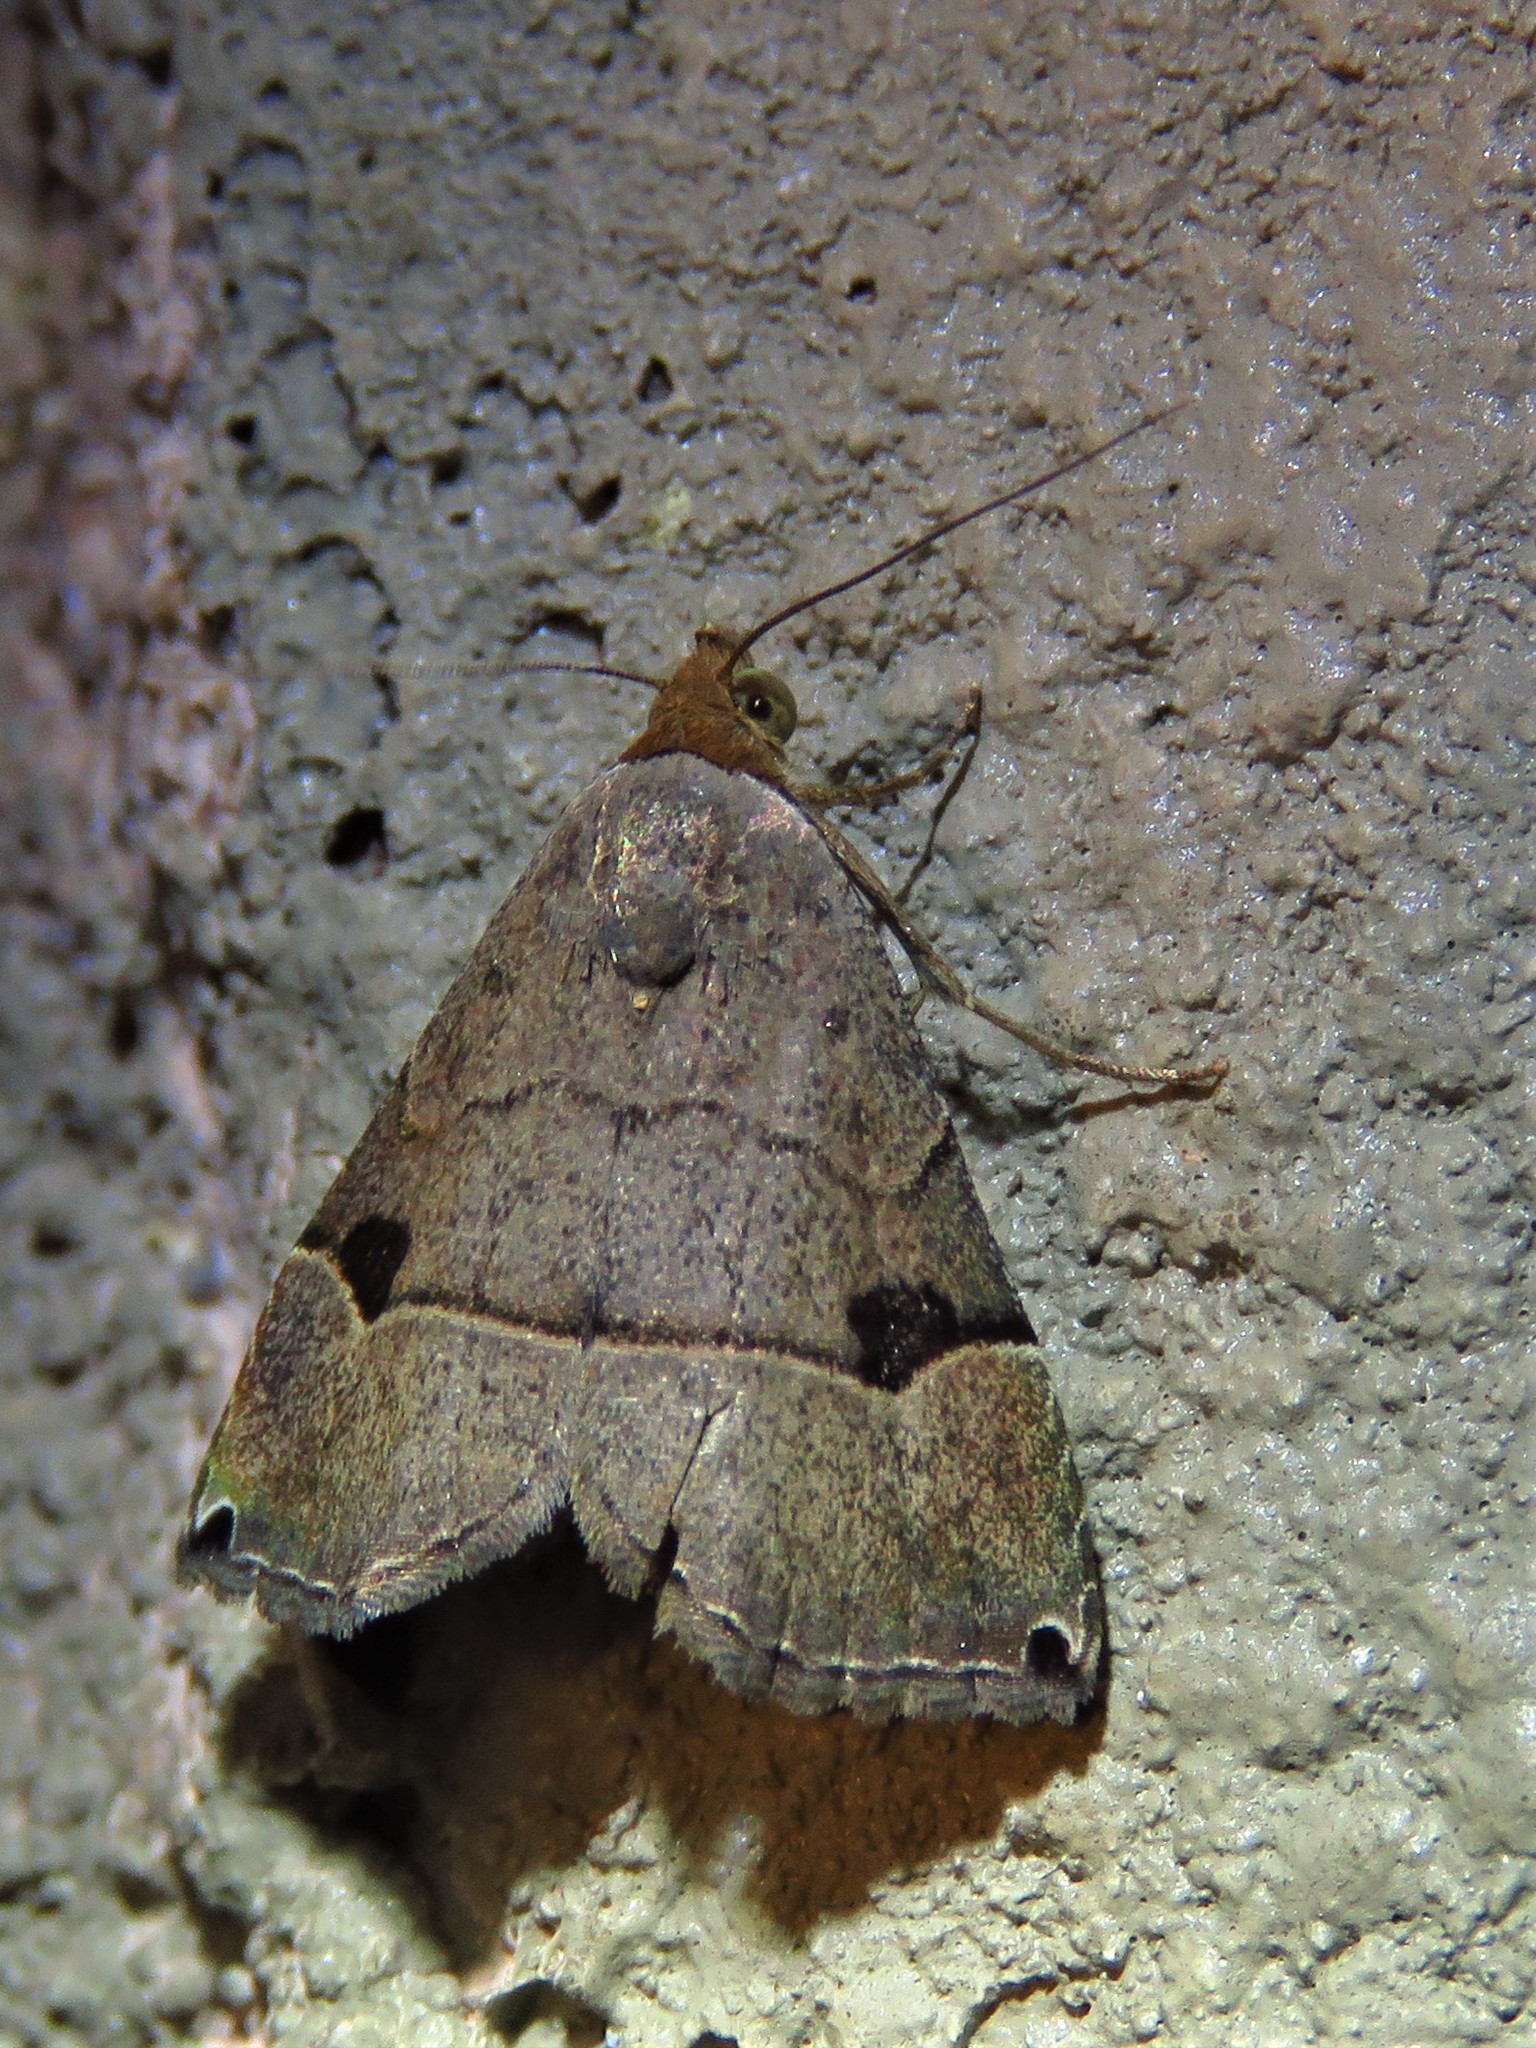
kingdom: Animalia
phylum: Arthropoda
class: Insecta
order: Lepidoptera
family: Noctuidae
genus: Abacena
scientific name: Abacena mundula
